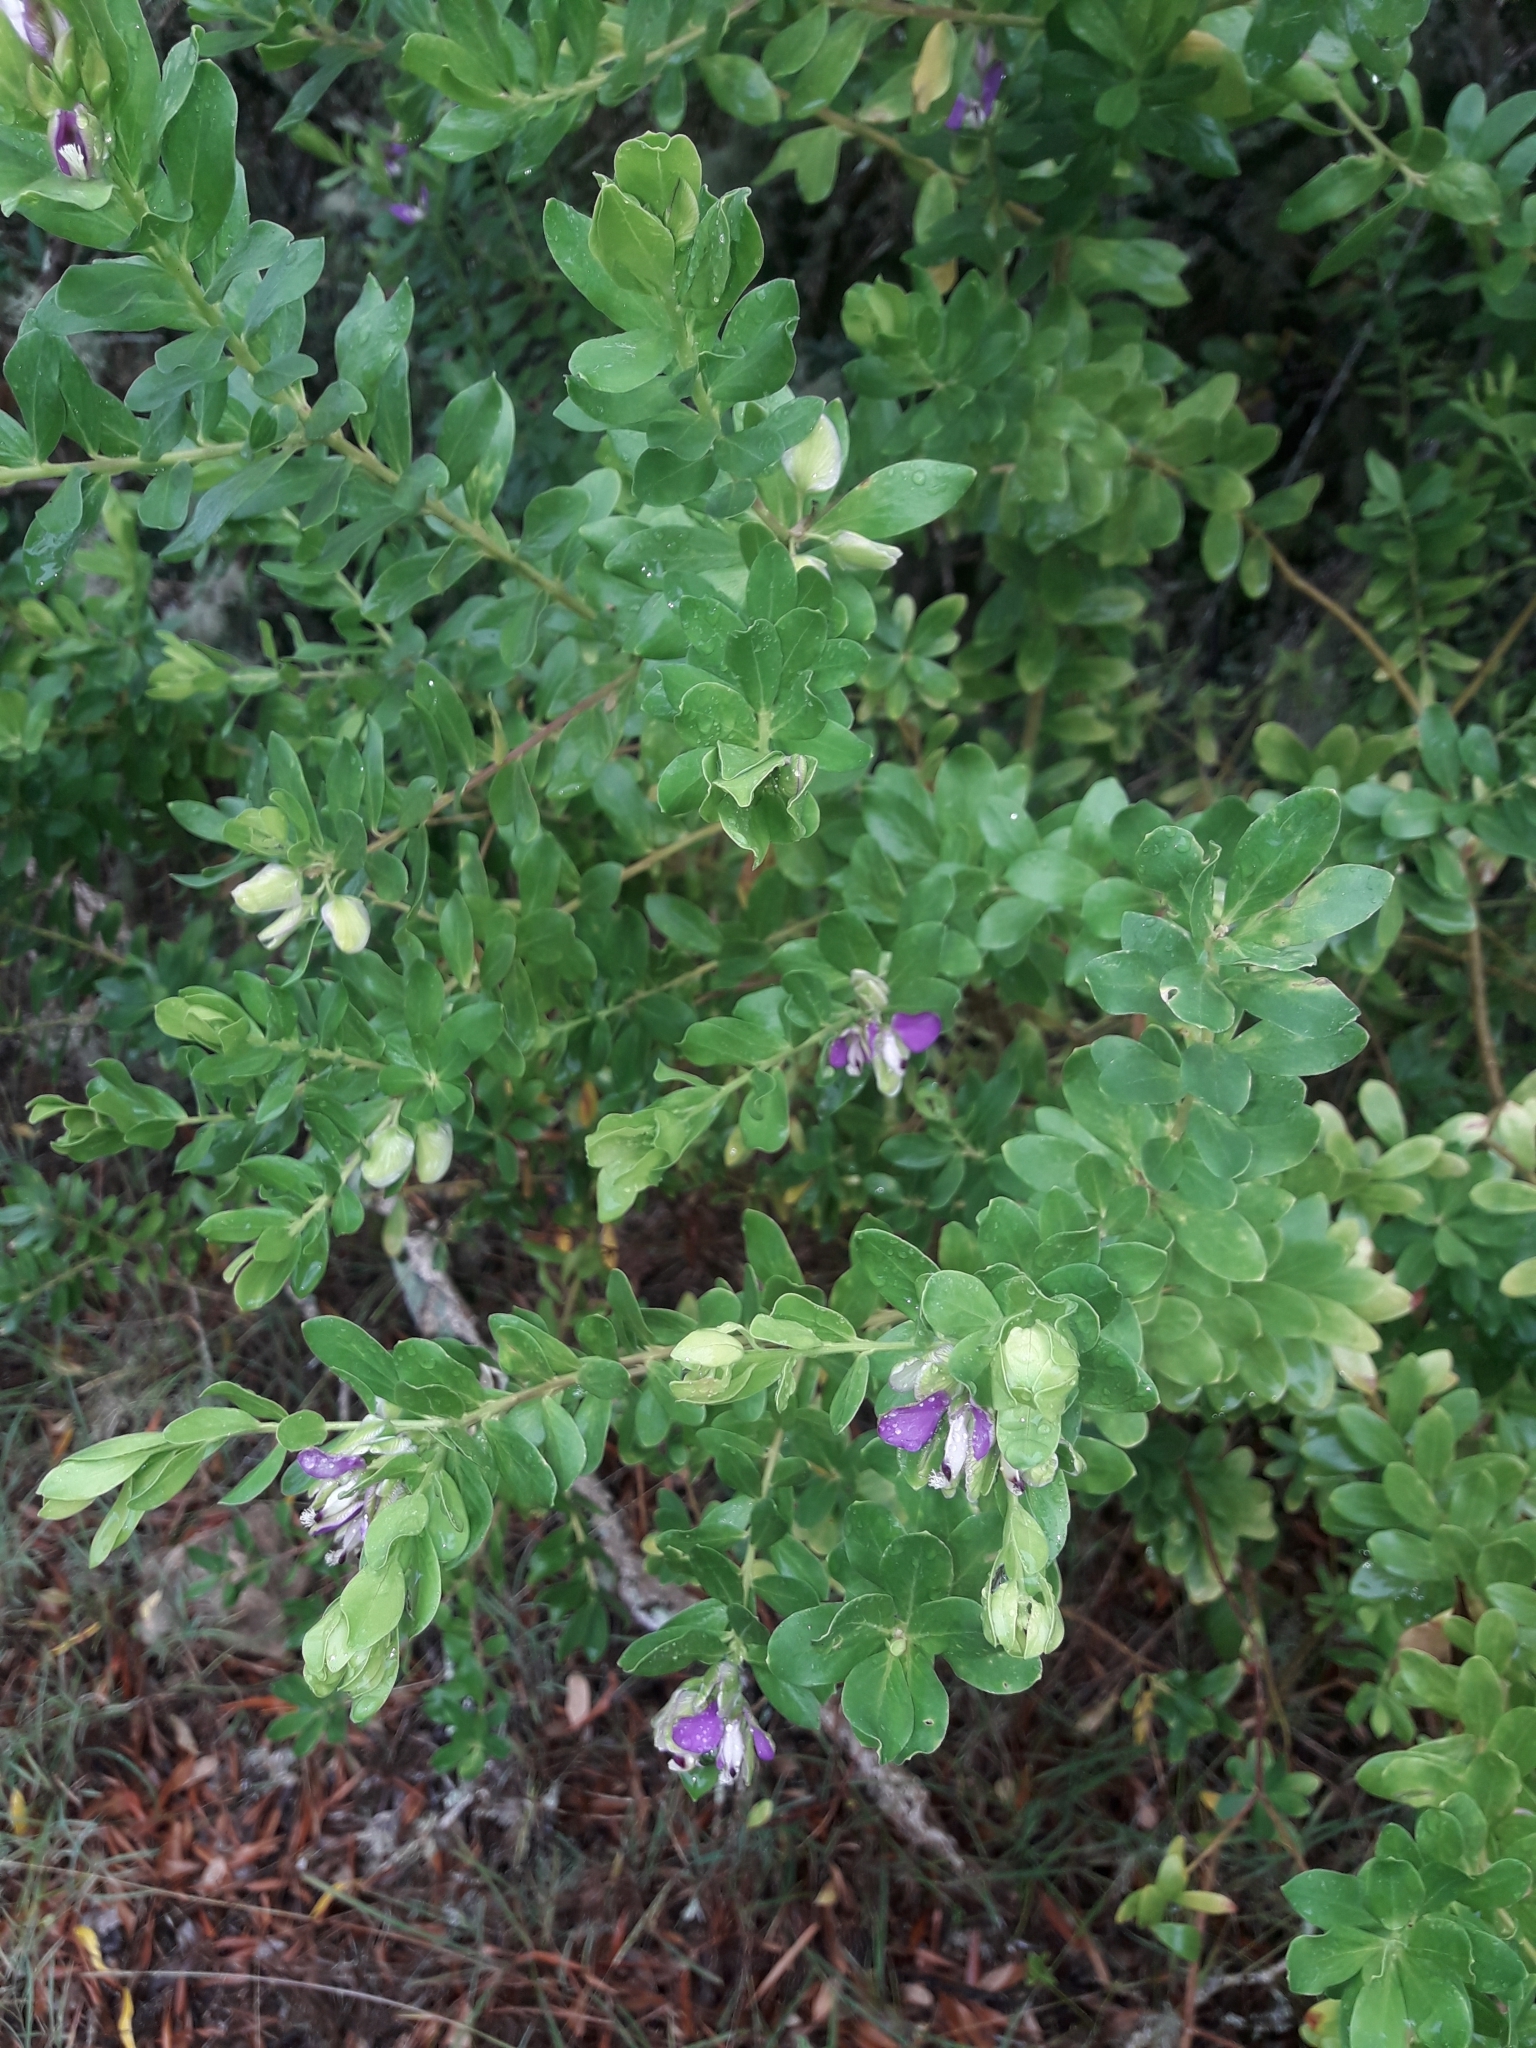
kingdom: Plantae
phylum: Tracheophyta
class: Magnoliopsida
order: Fabales
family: Polygalaceae
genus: Polygala
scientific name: Polygala myrtifolia
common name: Myrtle-leaf milkwort
